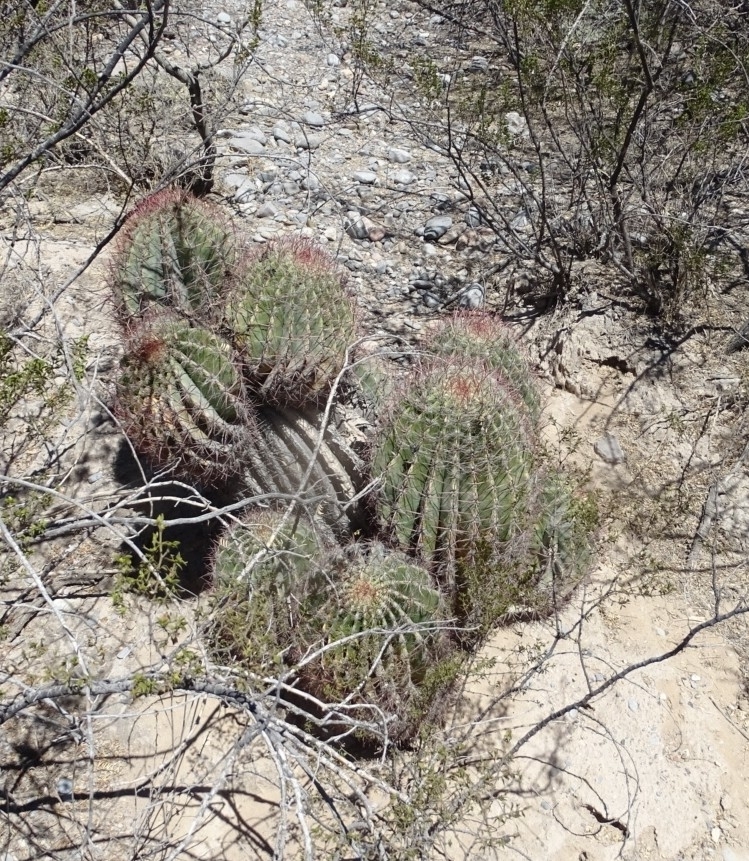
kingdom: Plantae
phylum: Tracheophyta
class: Magnoliopsida
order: Caryophyllales
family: Cactaceae
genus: Ferocactus
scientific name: Ferocactus pilosus
